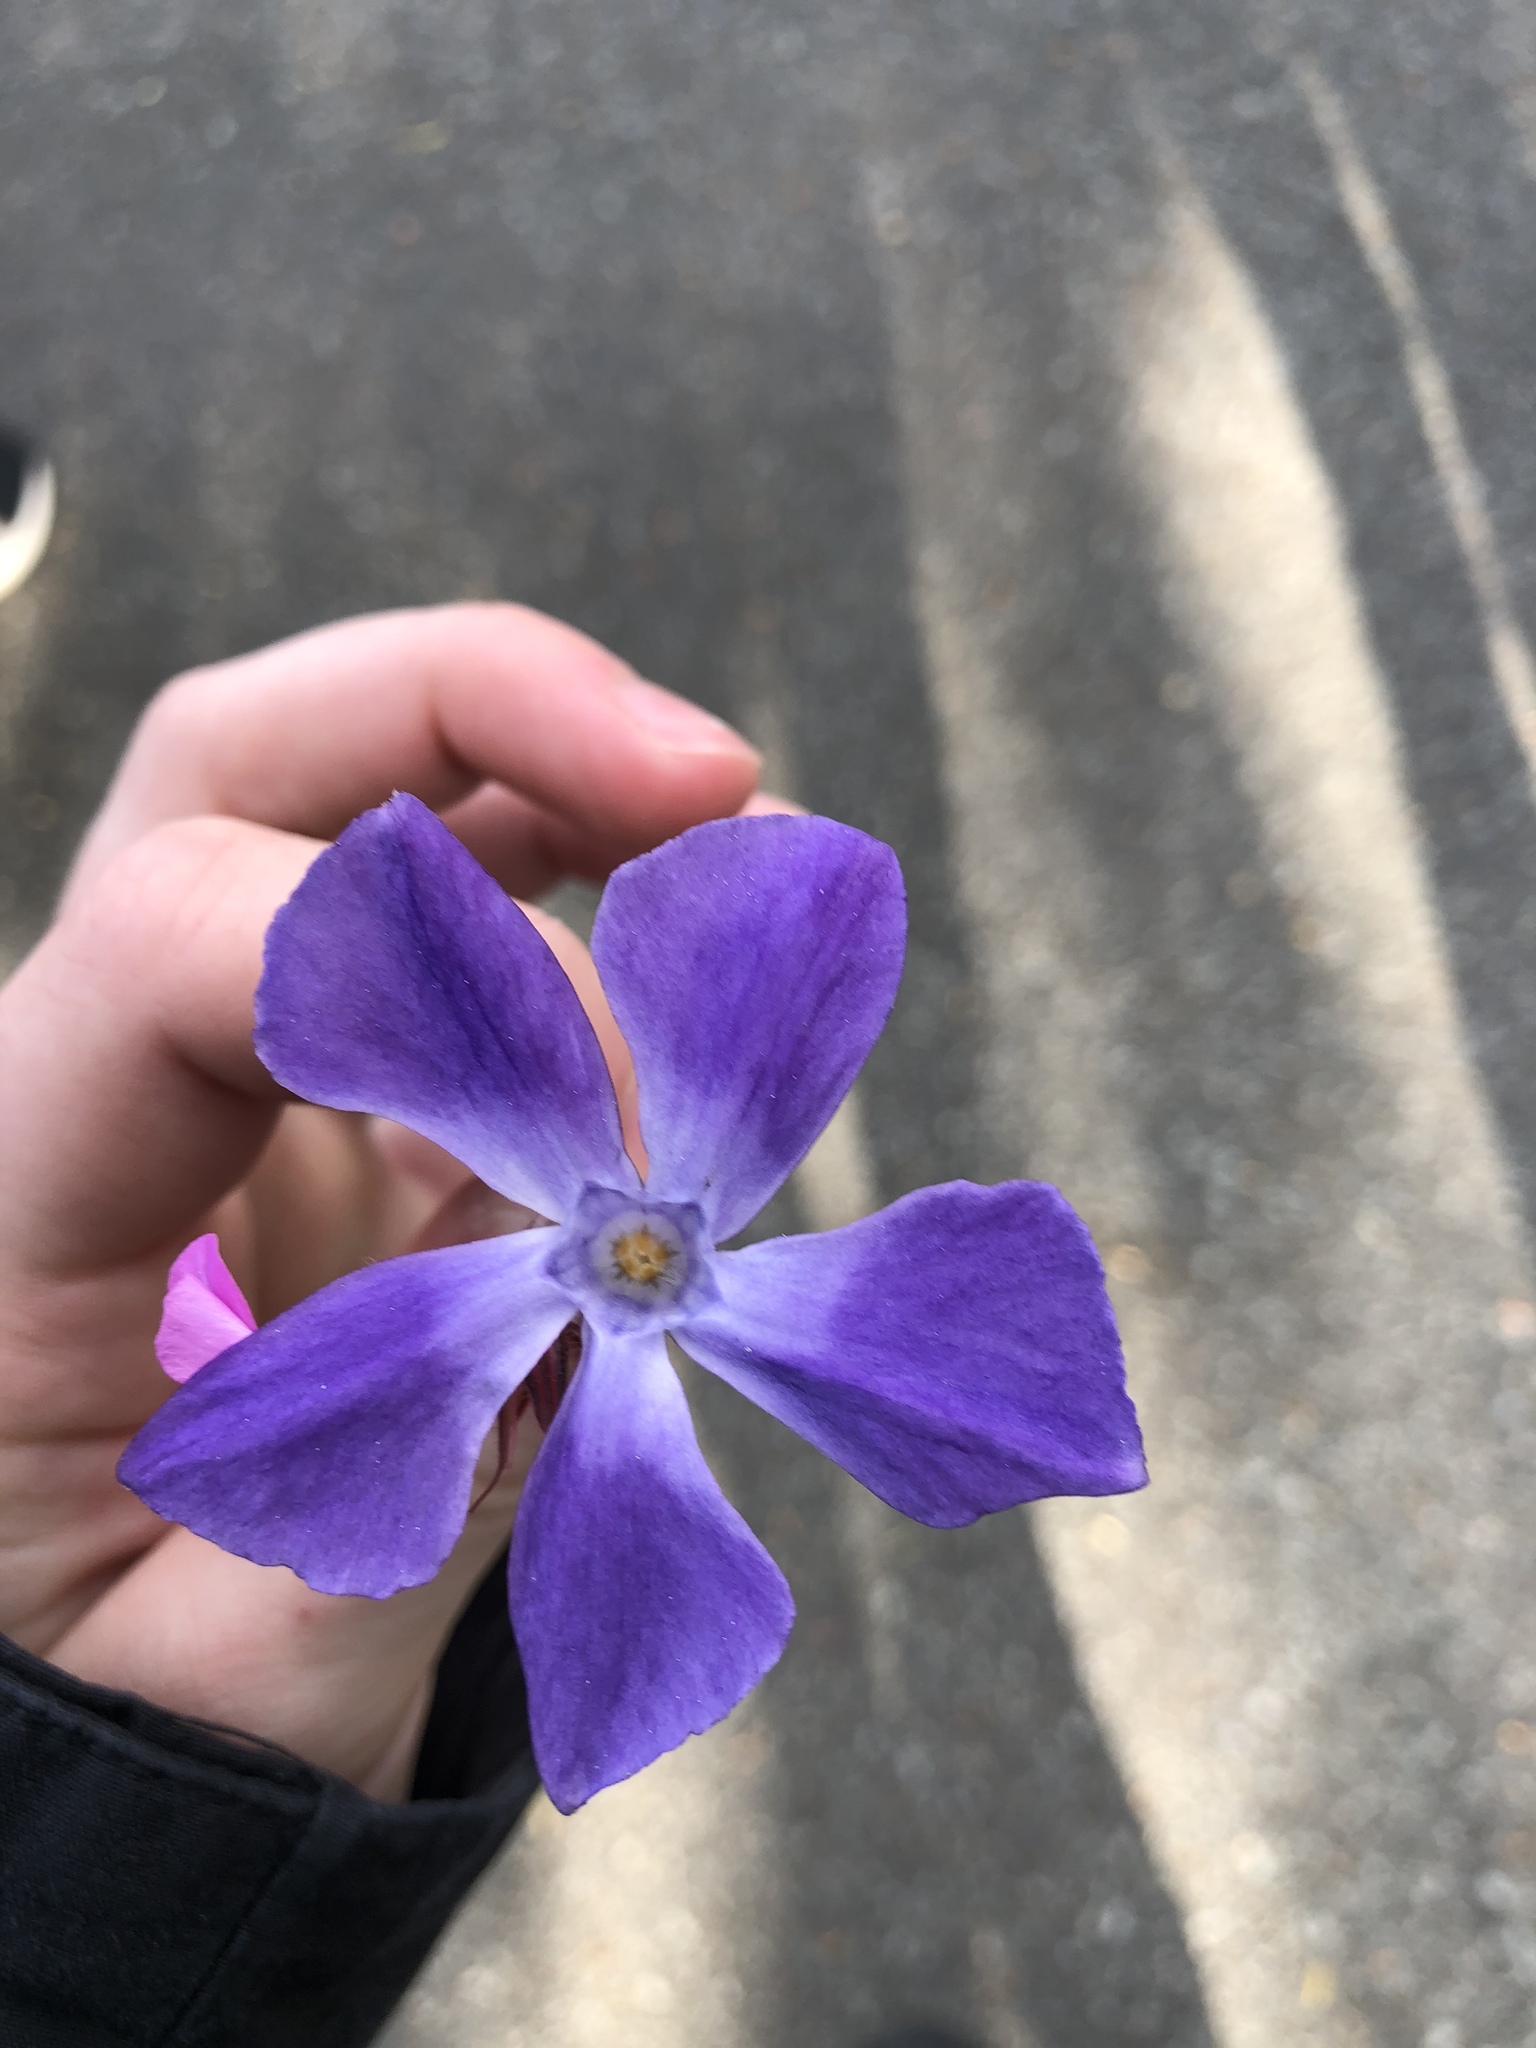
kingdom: Plantae
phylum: Tracheophyta
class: Magnoliopsida
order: Gentianales
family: Apocynaceae
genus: Vinca
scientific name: Vinca
